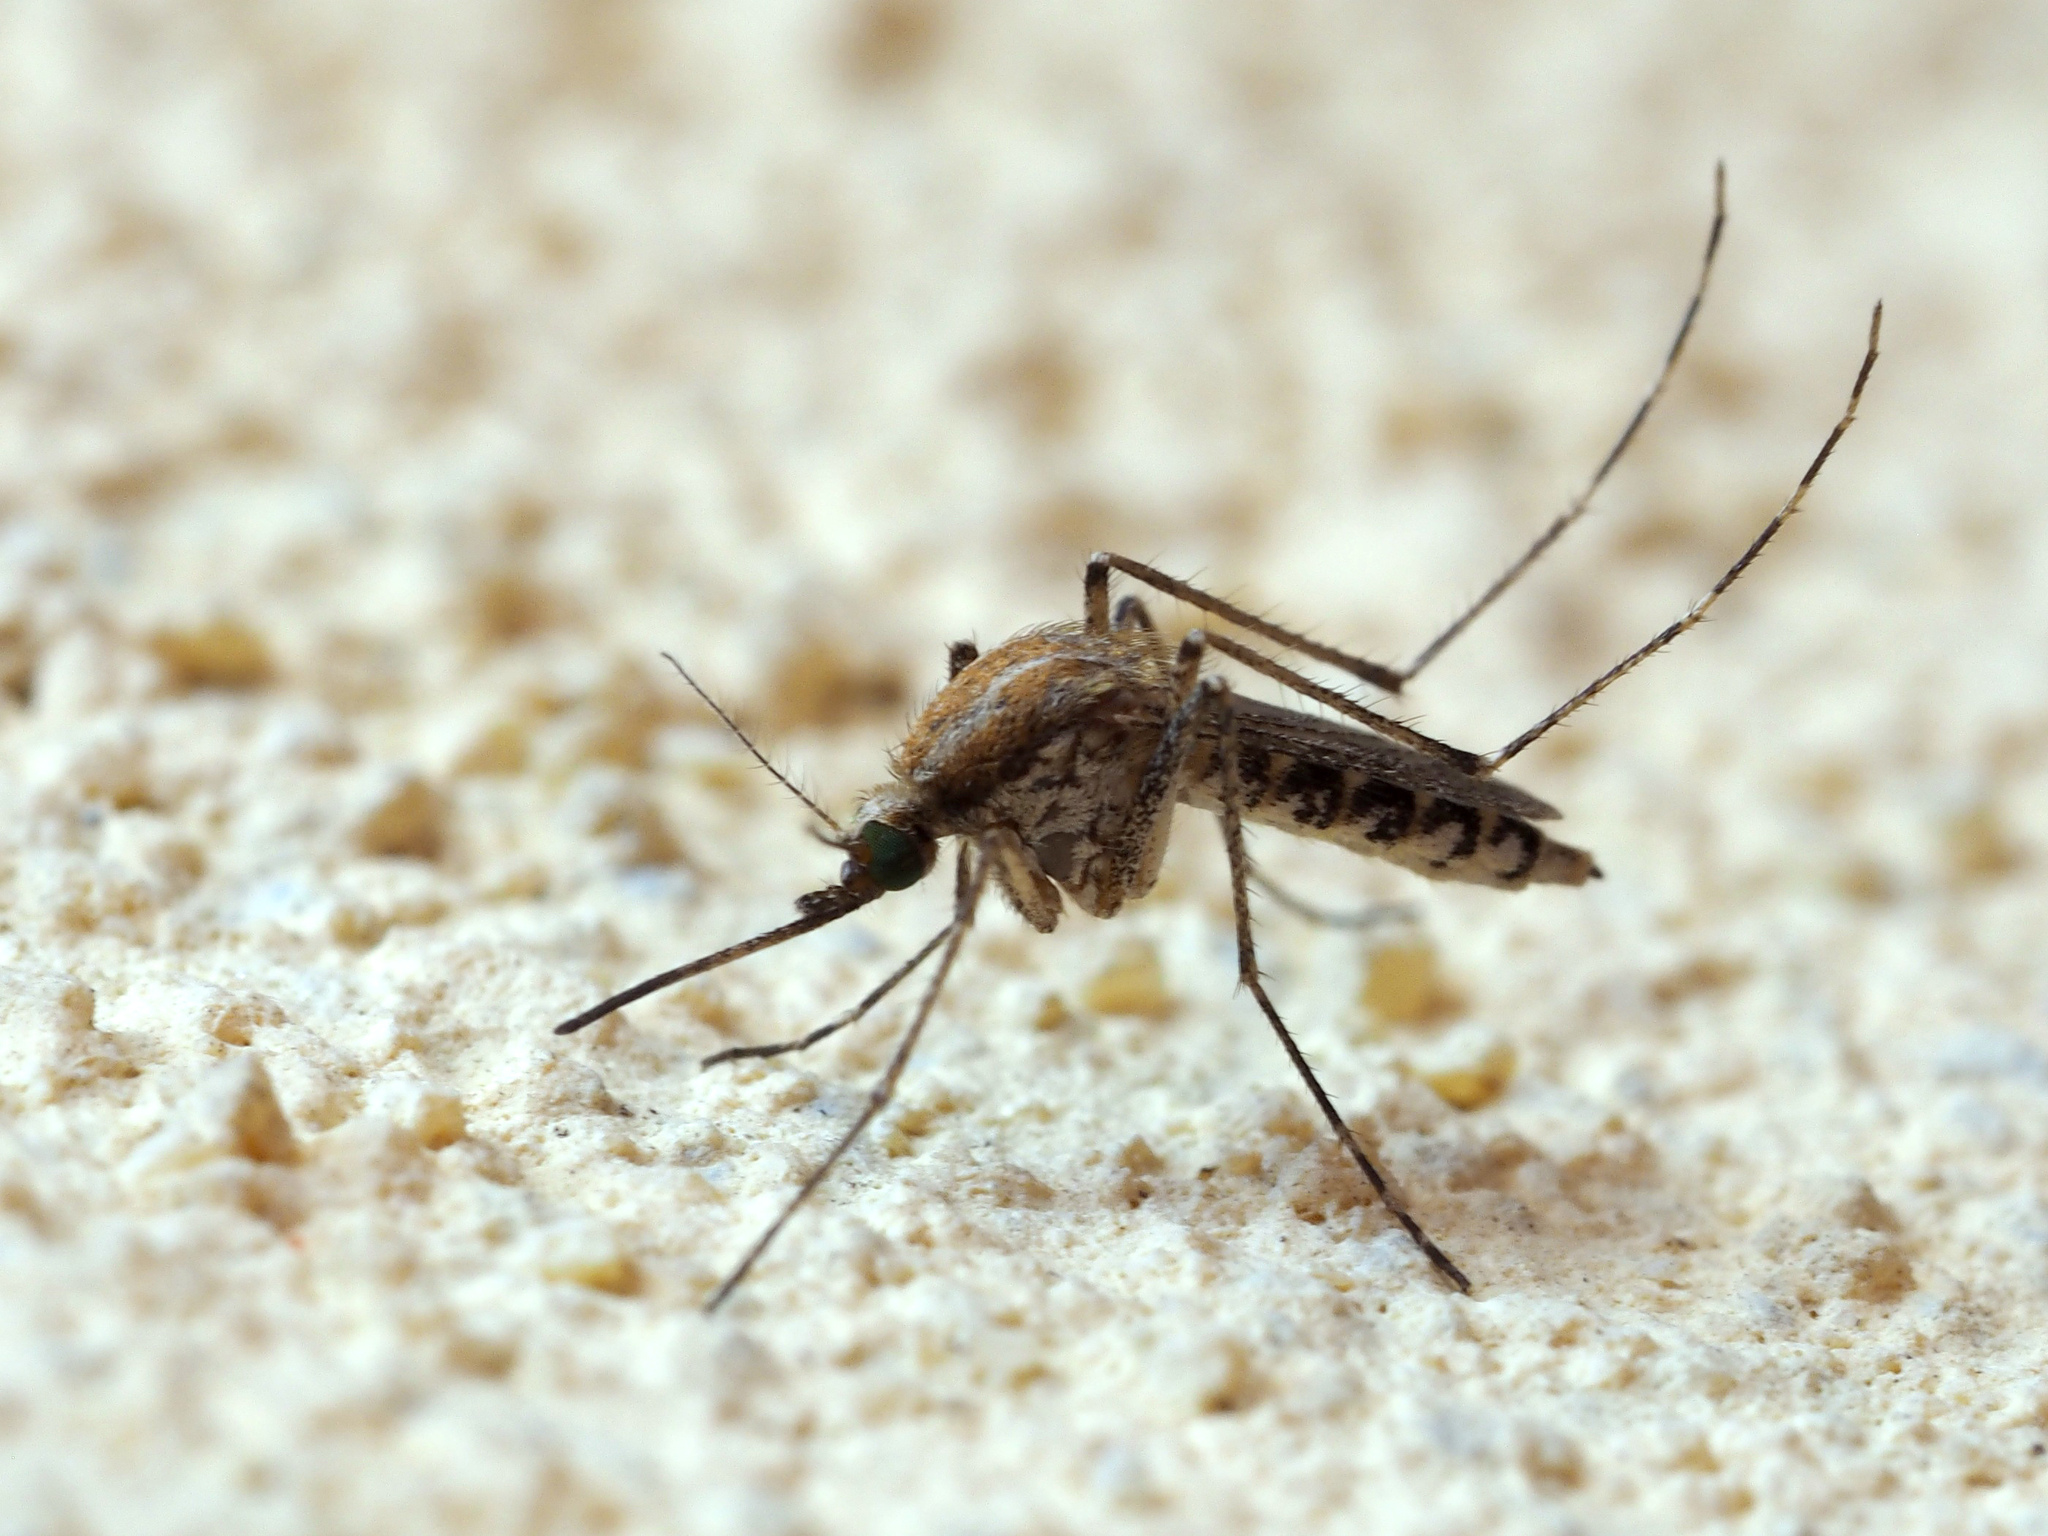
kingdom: Animalia
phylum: Arthropoda
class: Insecta
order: Diptera
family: Culicidae
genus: Aedes
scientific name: Aedes caspius
